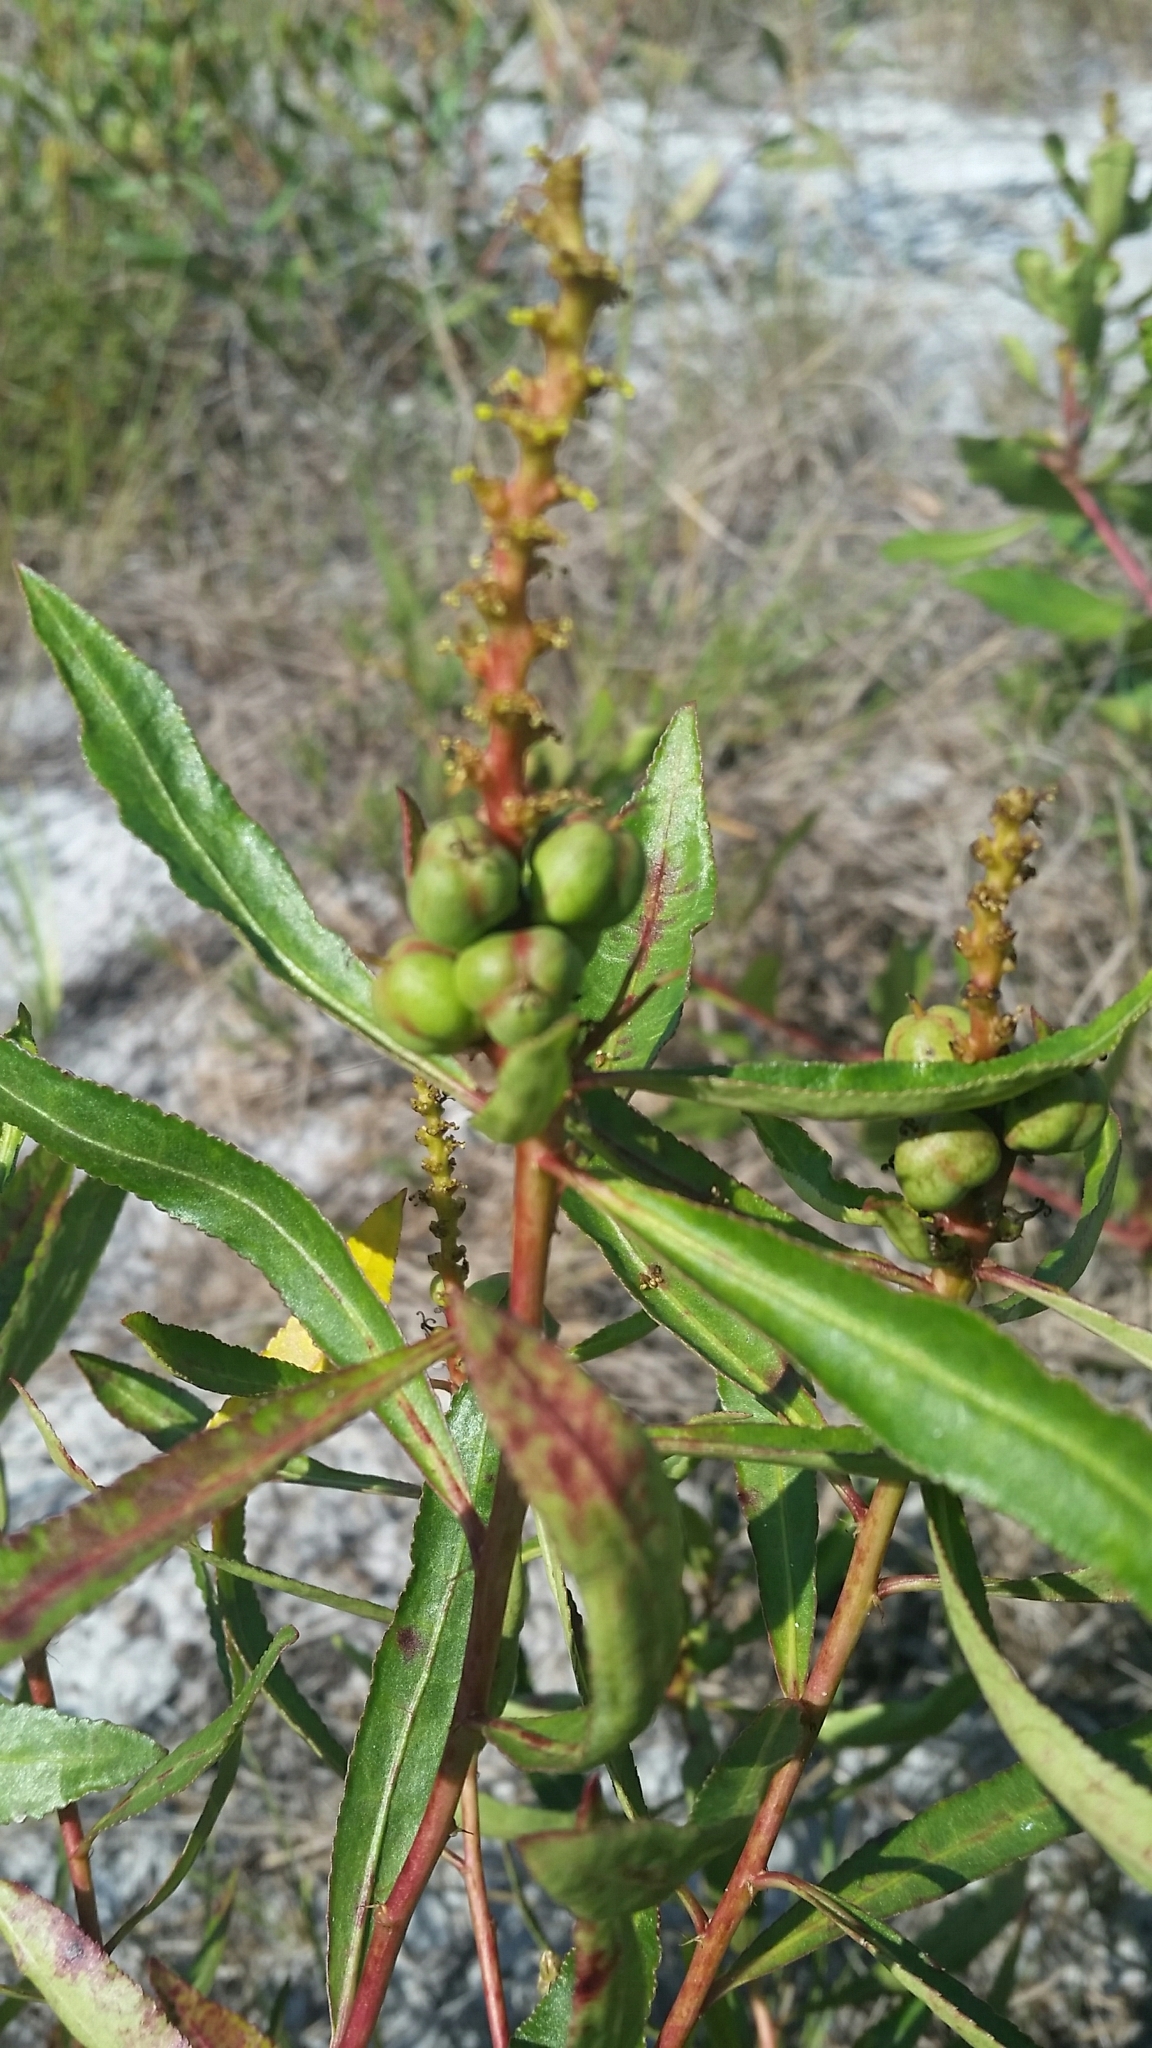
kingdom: Plantae
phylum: Tracheophyta
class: Magnoliopsida
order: Malpighiales
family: Euphorbiaceae
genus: Stillingia
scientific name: Stillingia sylvatica
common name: Queen's-delight
